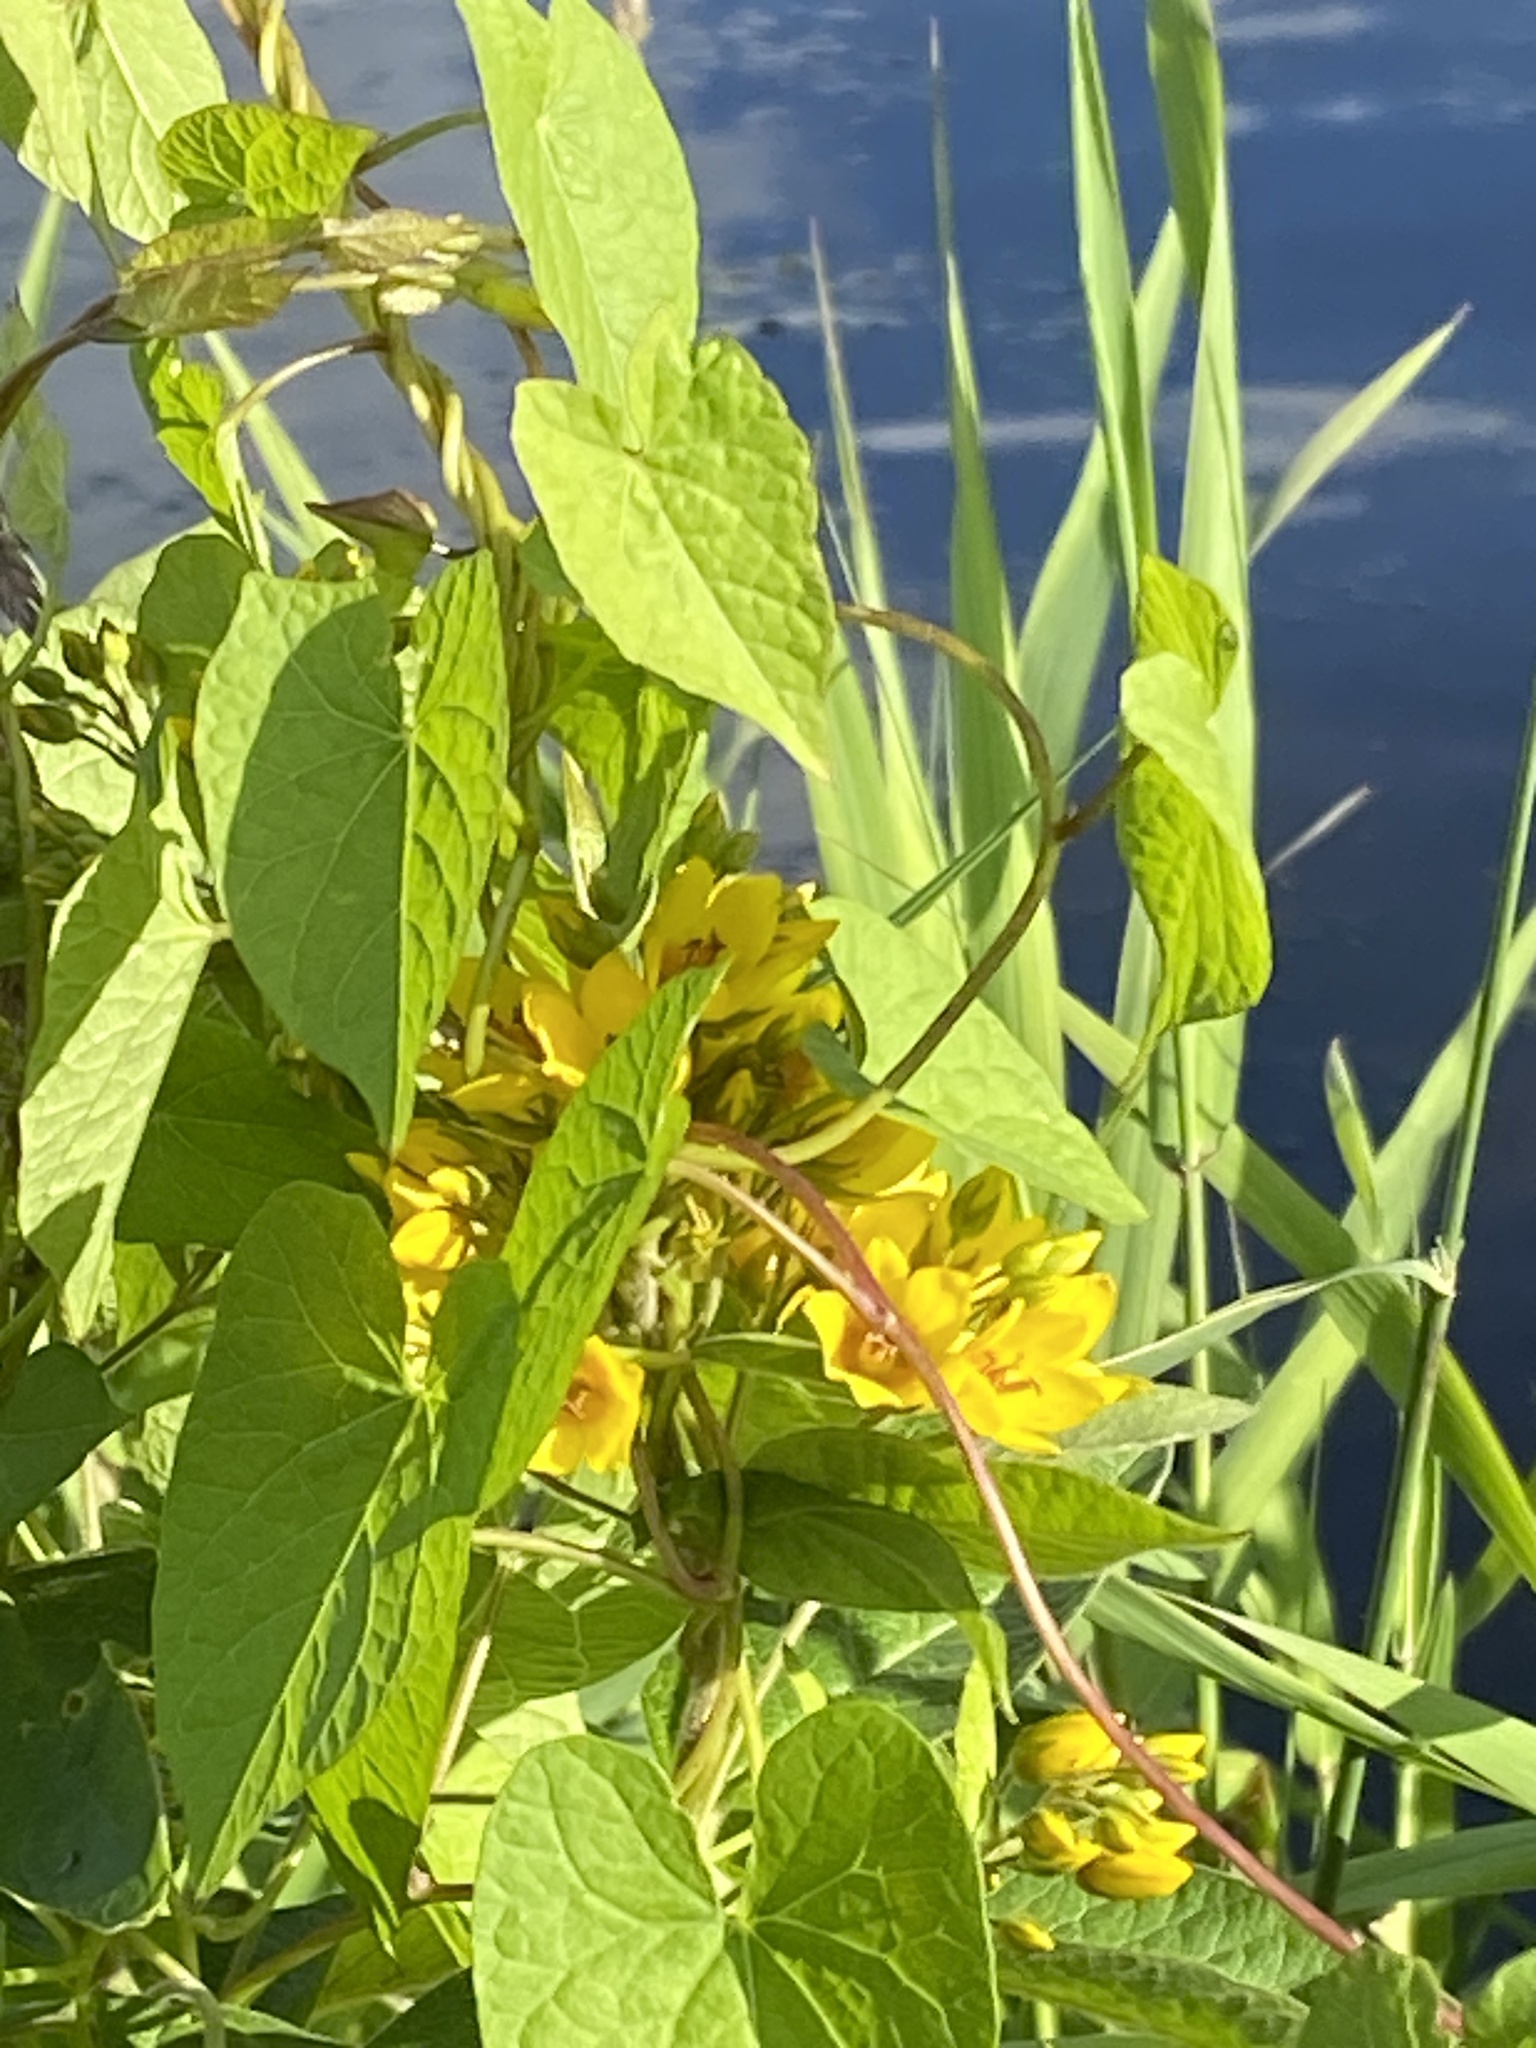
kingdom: Plantae
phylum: Tracheophyta
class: Magnoliopsida
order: Ericales
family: Primulaceae
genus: Lysimachia
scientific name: Lysimachia vulgaris
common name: Yellow loosestrife
